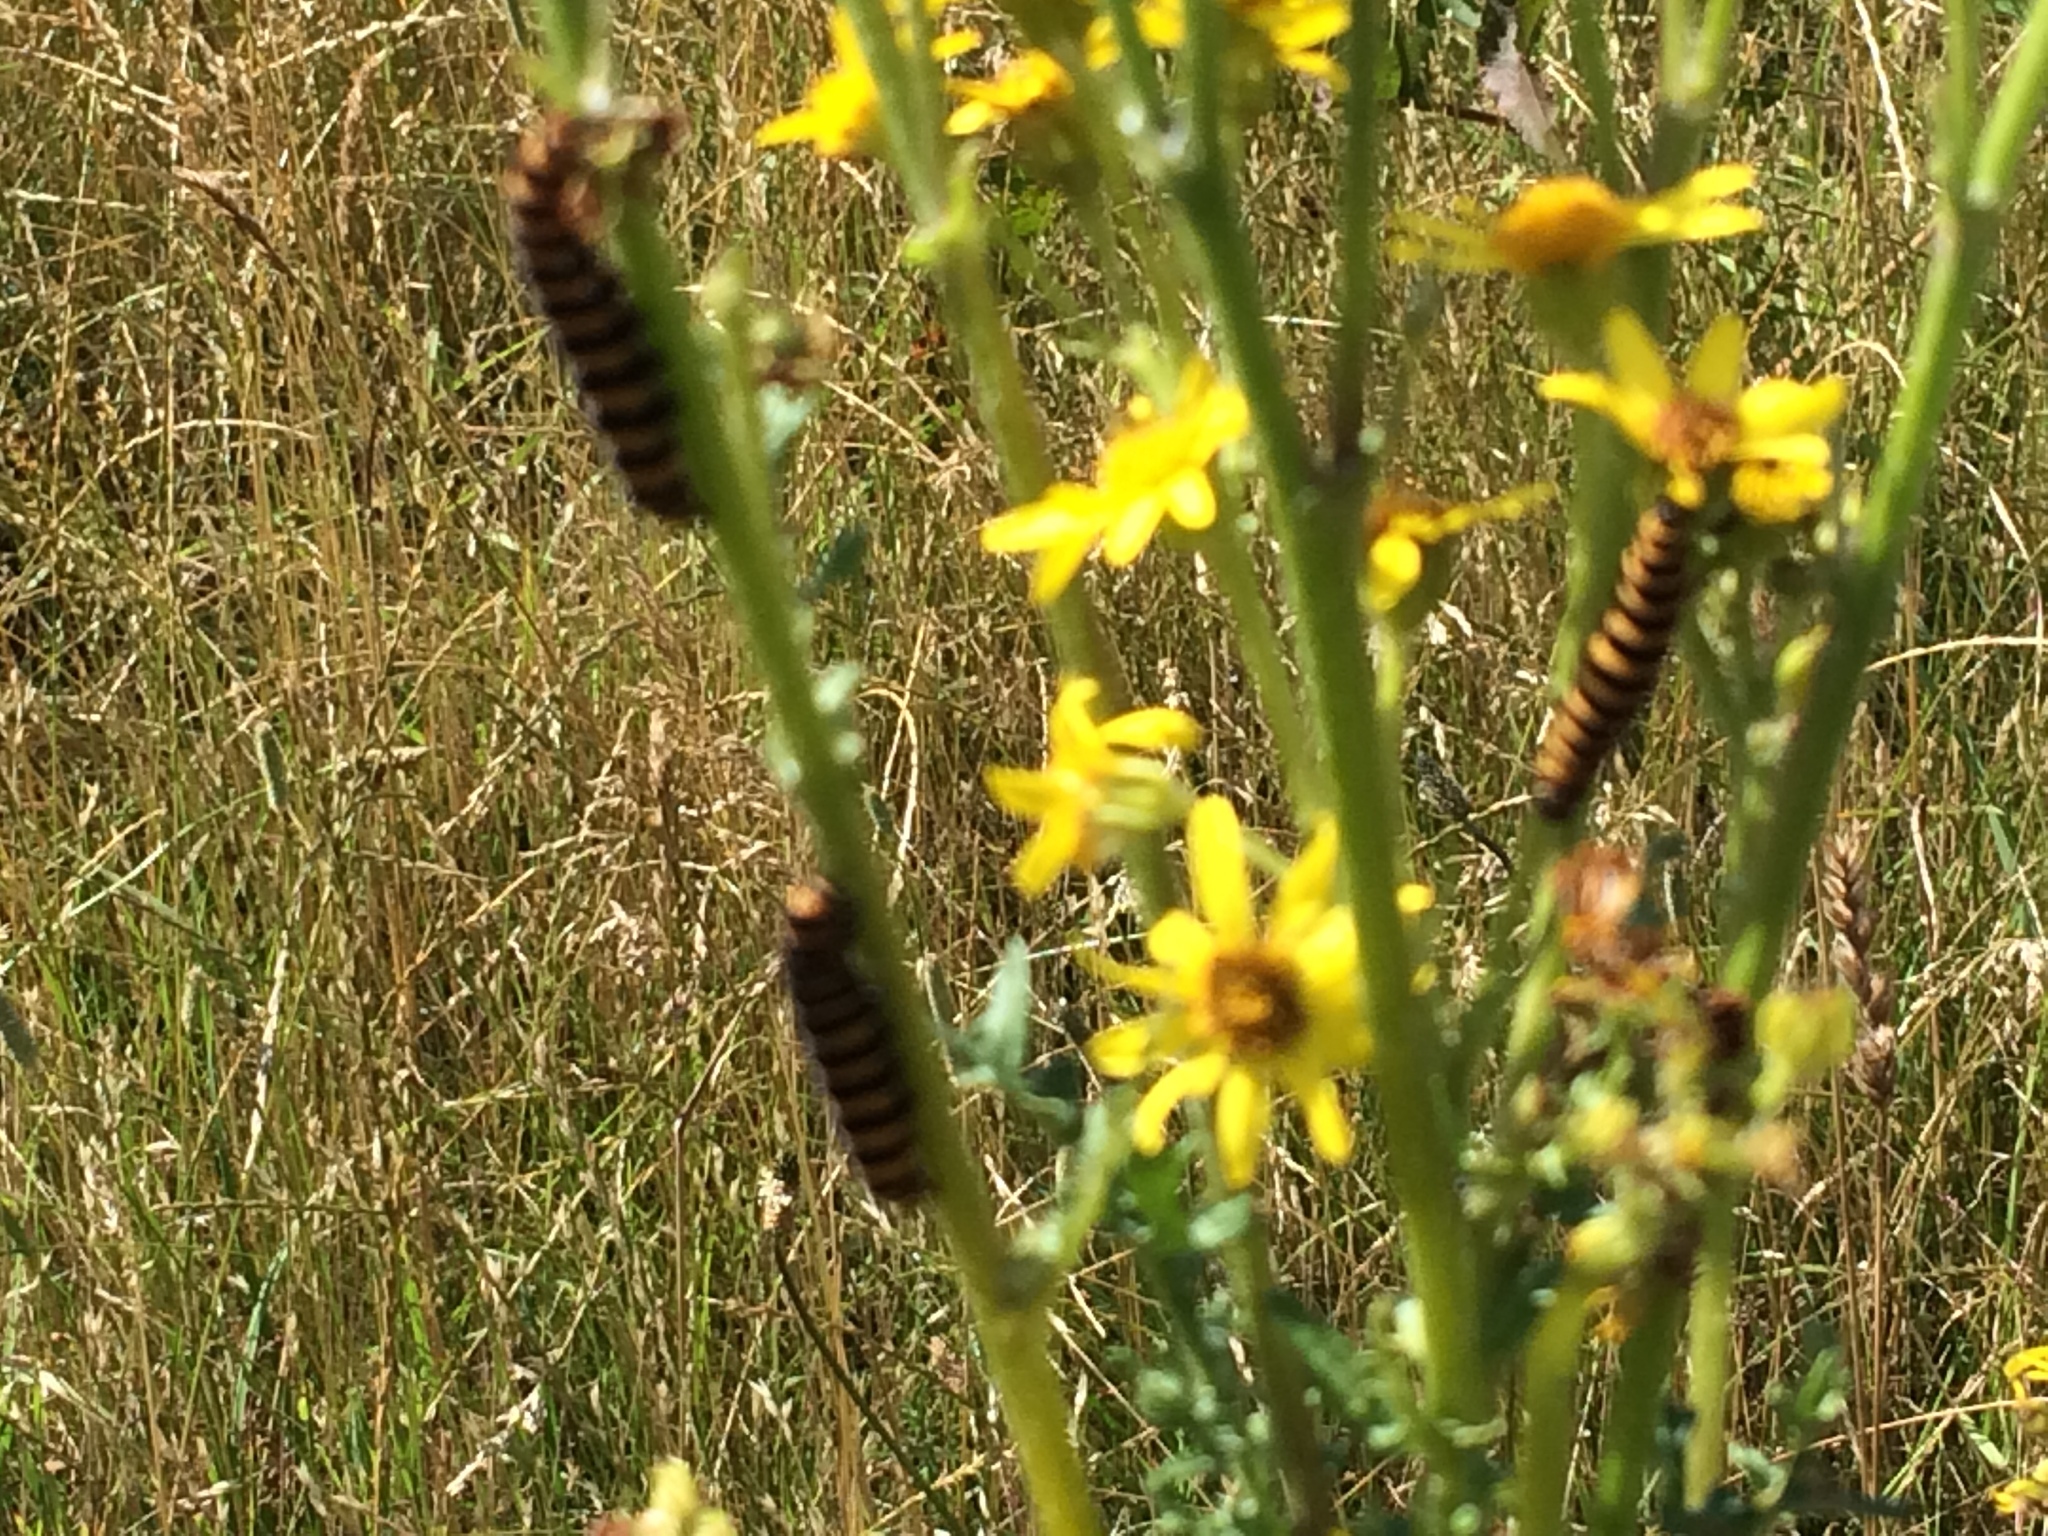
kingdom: Animalia
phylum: Arthropoda
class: Insecta
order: Lepidoptera
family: Erebidae
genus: Tyria
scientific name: Tyria jacobaeae
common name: Cinnabar
